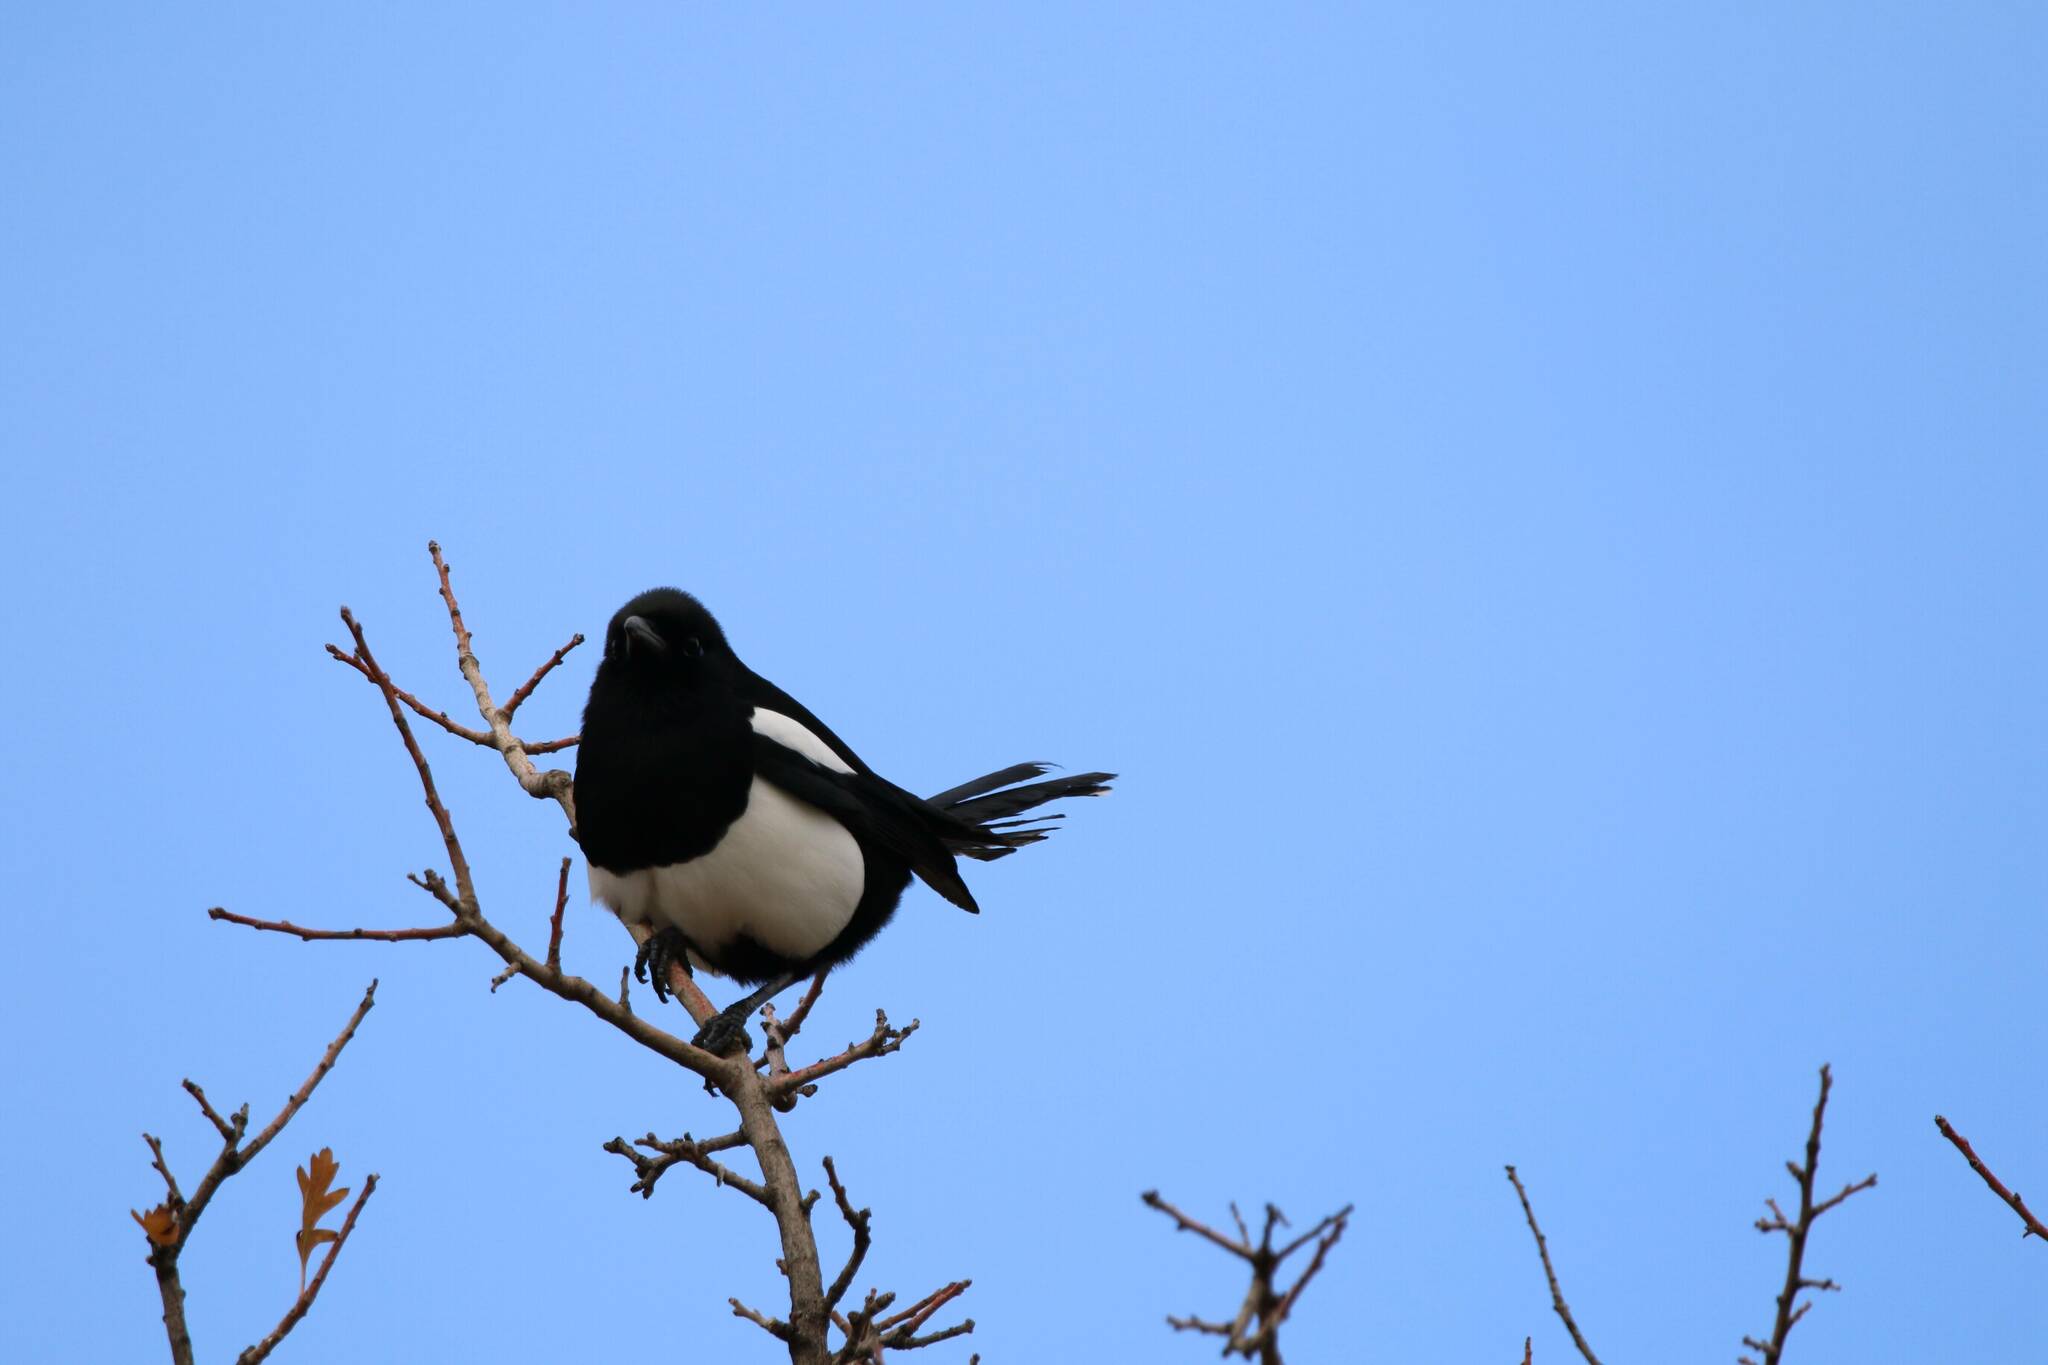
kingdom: Animalia
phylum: Chordata
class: Aves
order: Passeriformes
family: Corvidae
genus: Pica
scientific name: Pica mauritanica
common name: Maghreb magpie
